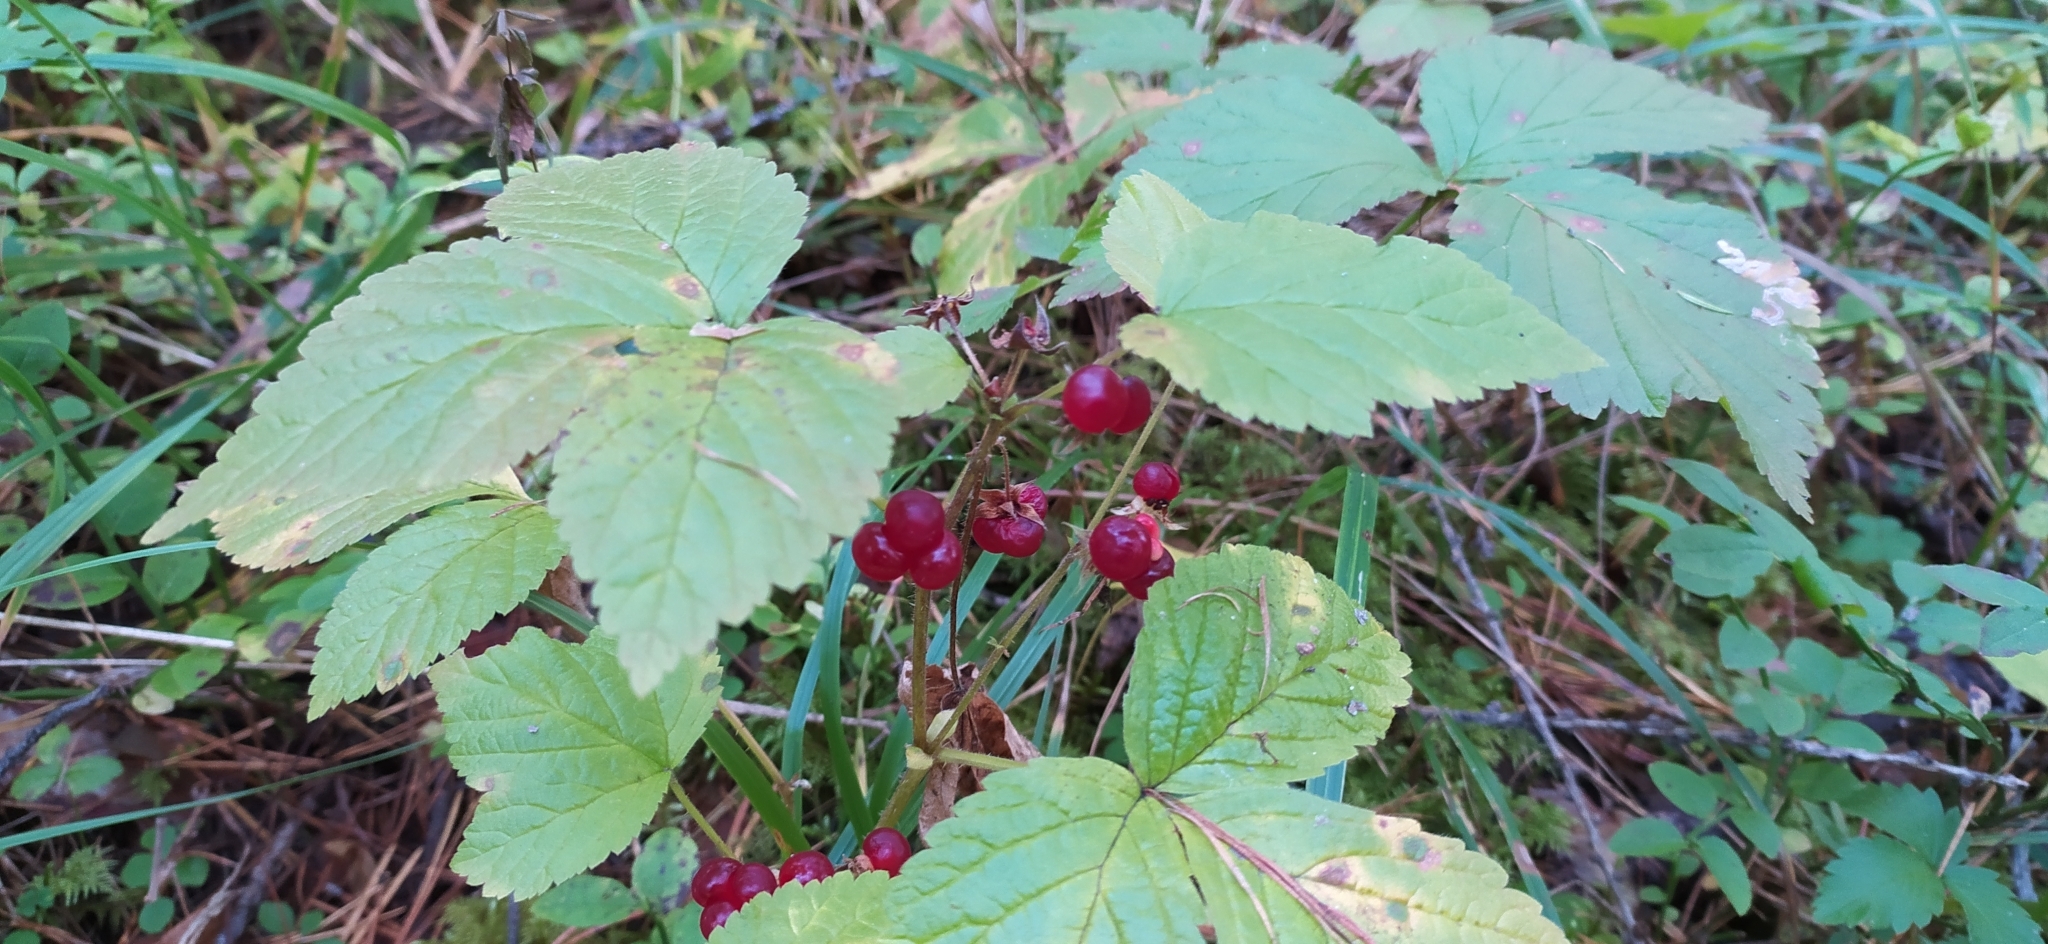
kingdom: Plantae
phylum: Tracheophyta
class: Magnoliopsida
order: Rosales
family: Rosaceae
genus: Rubus
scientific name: Rubus saxatilis
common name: Stone bramble
